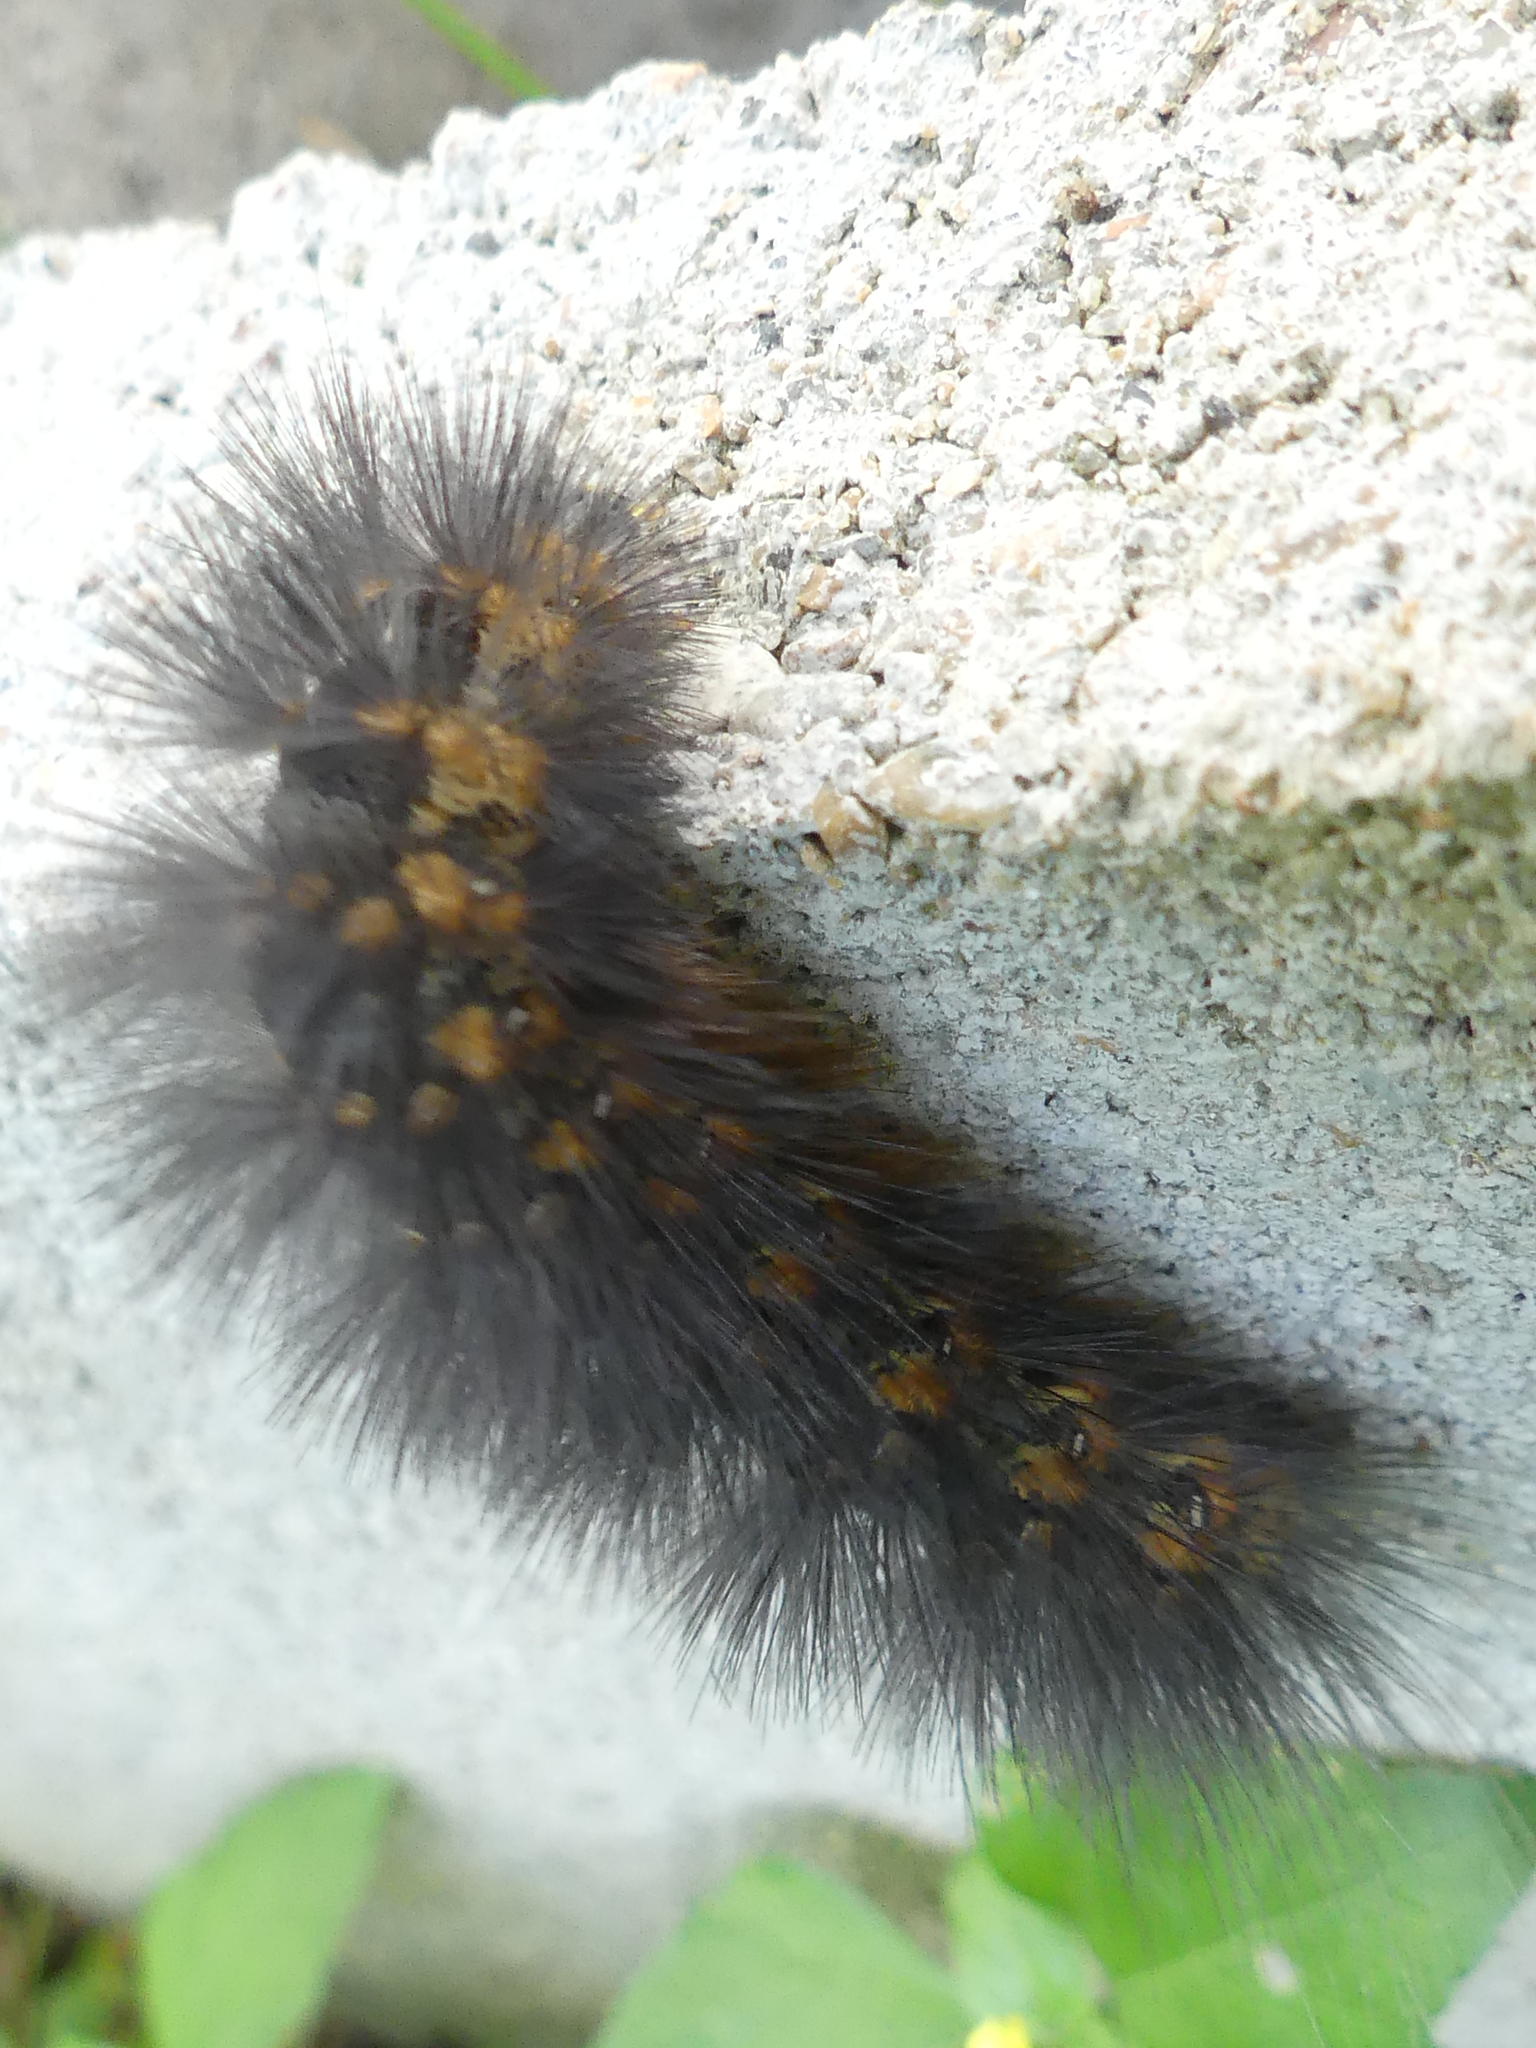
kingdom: Animalia
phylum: Arthropoda
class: Insecta
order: Lepidoptera
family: Erebidae
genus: Estigmene
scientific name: Estigmene acrea
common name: Salt marsh moth
